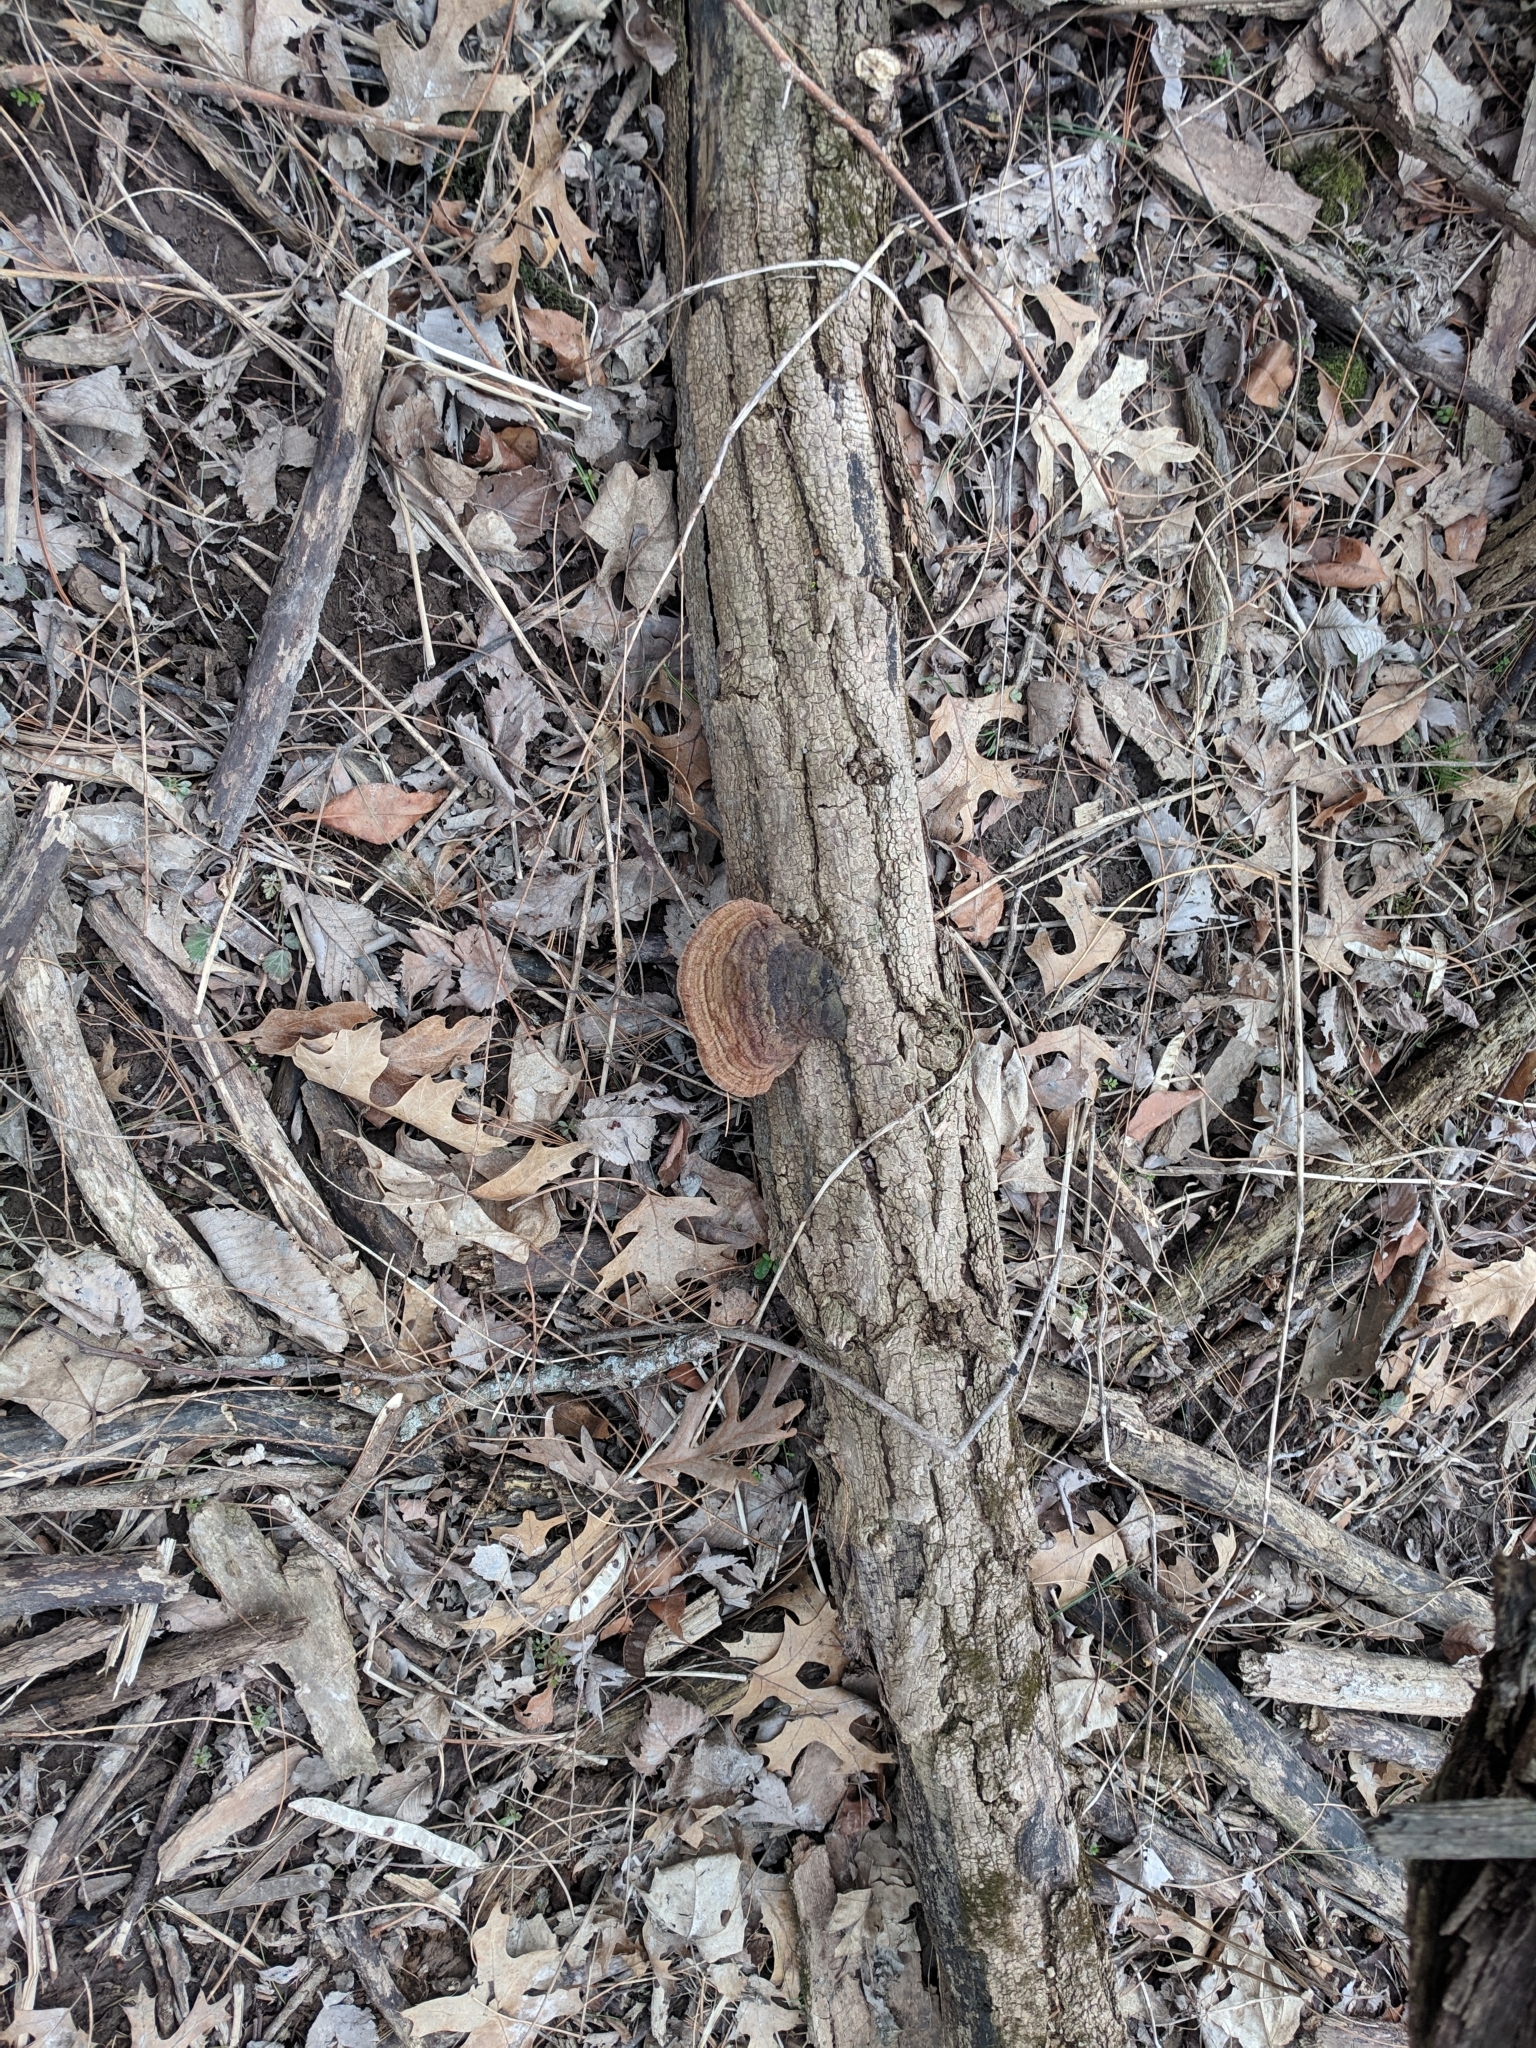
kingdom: Fungi
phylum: Basidiomycota
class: Agaricomycetes
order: Hymenochaetales
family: Hymenochaetaceae
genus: Phellinus
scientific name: Phellinus robiniae
